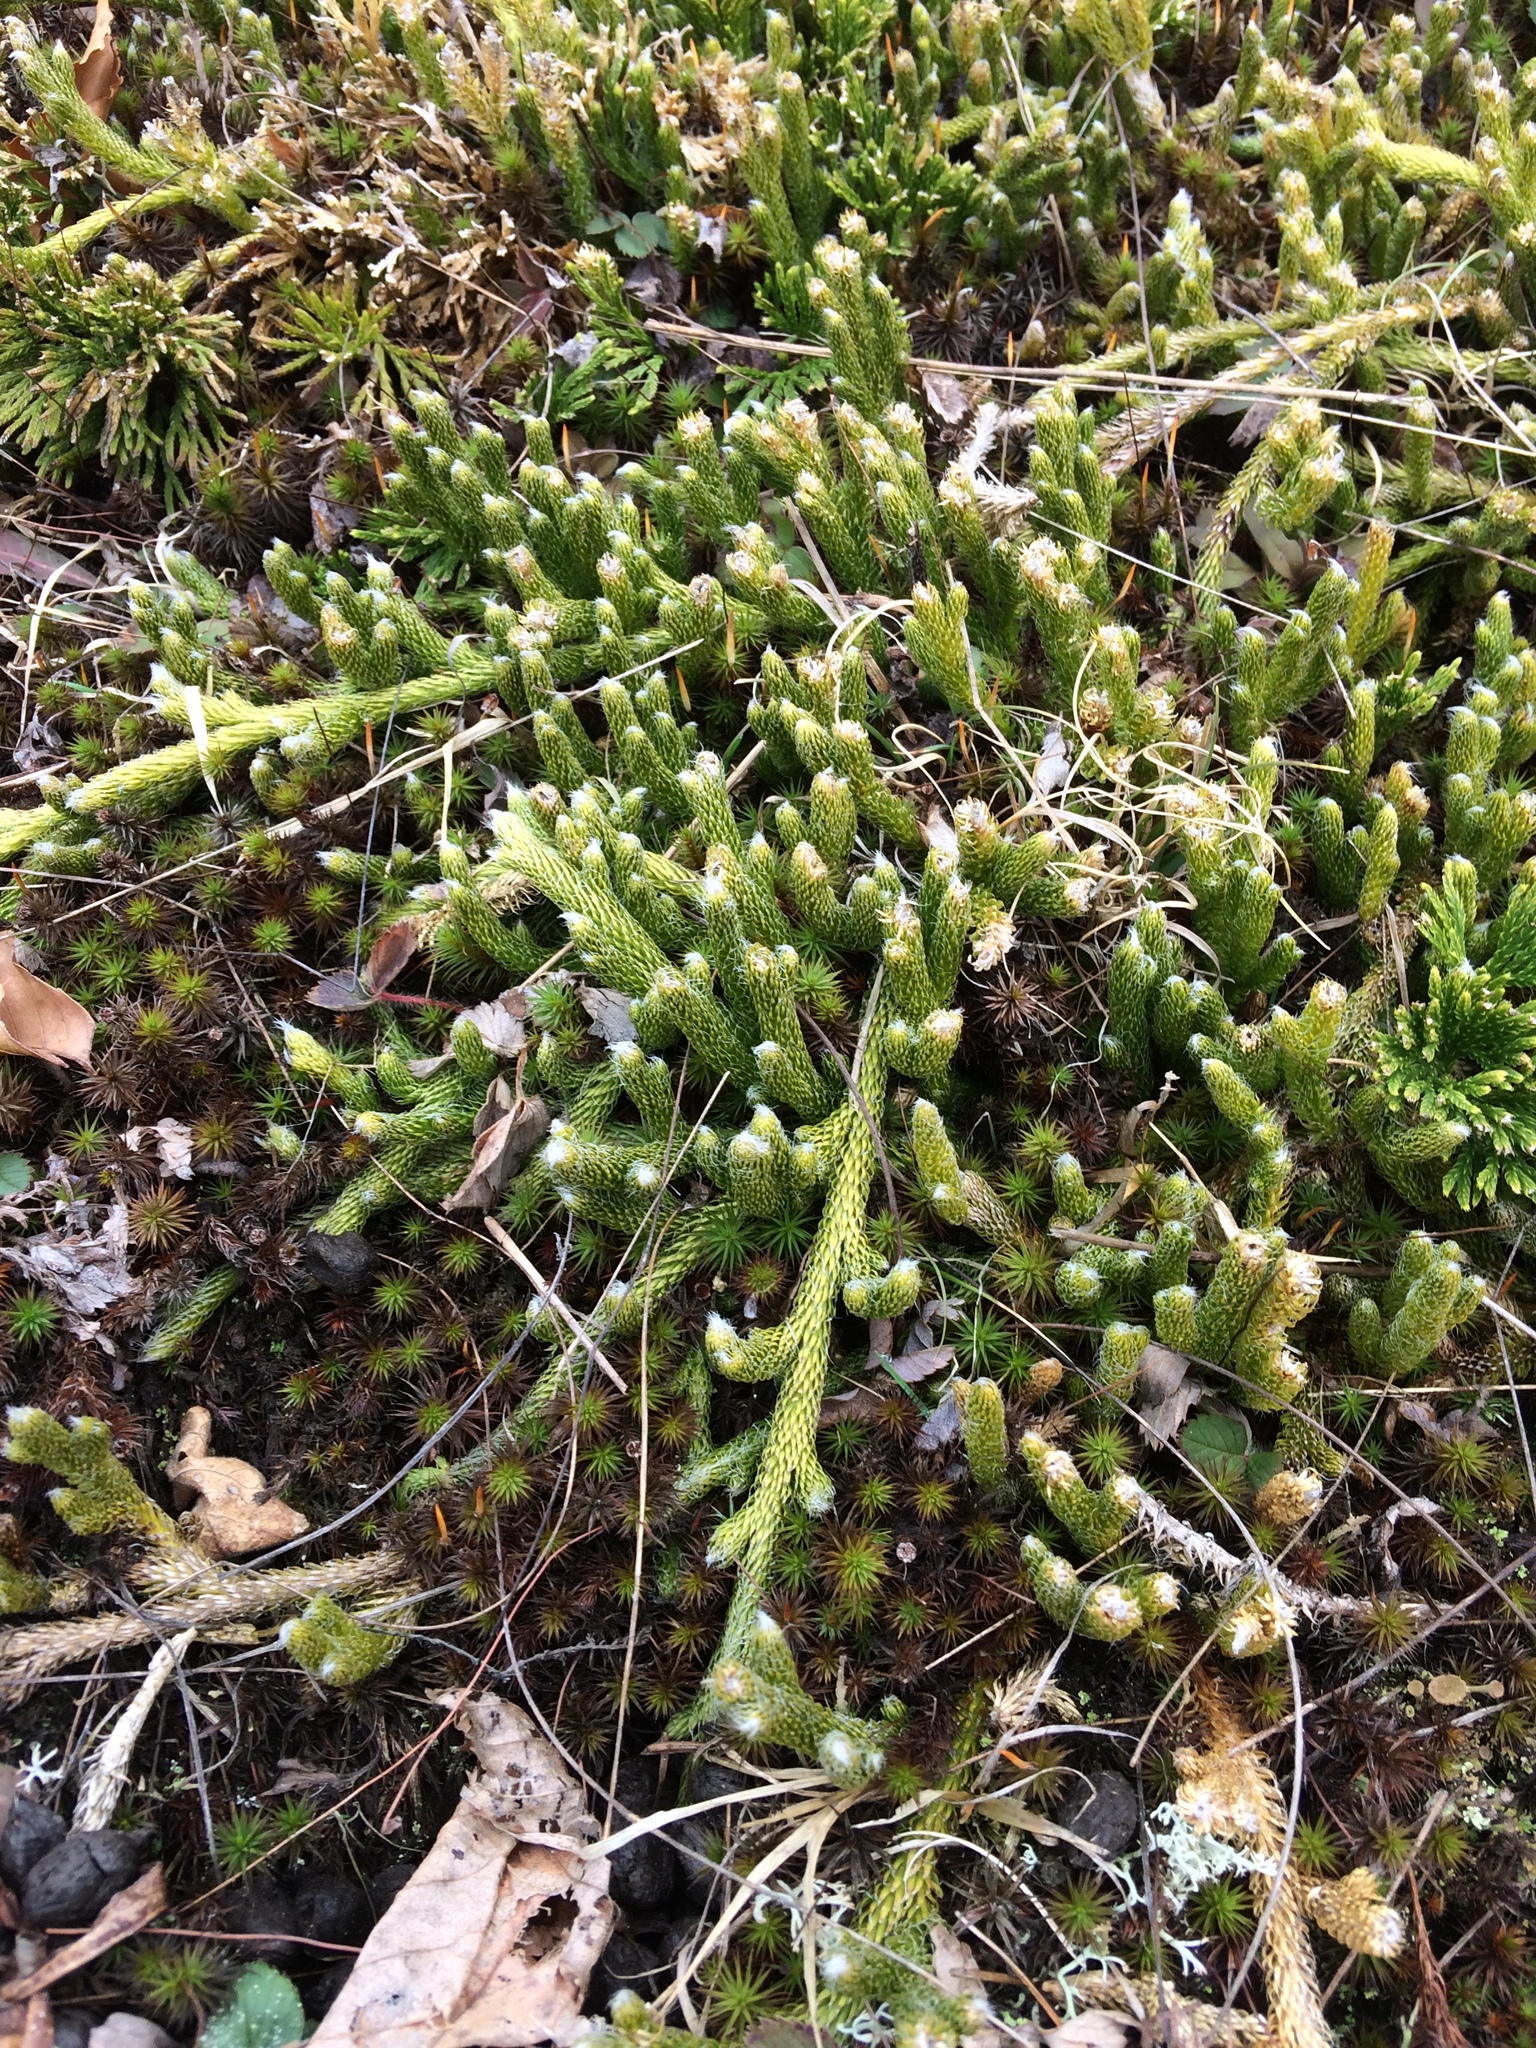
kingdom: Plantae
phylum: Tracheophyta
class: Lycopodiopsida
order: Lycopodiales
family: Lycopodiaceae
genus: Lycopodium
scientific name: Lycopodium clavatum
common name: Stag's-horn clubmoss
